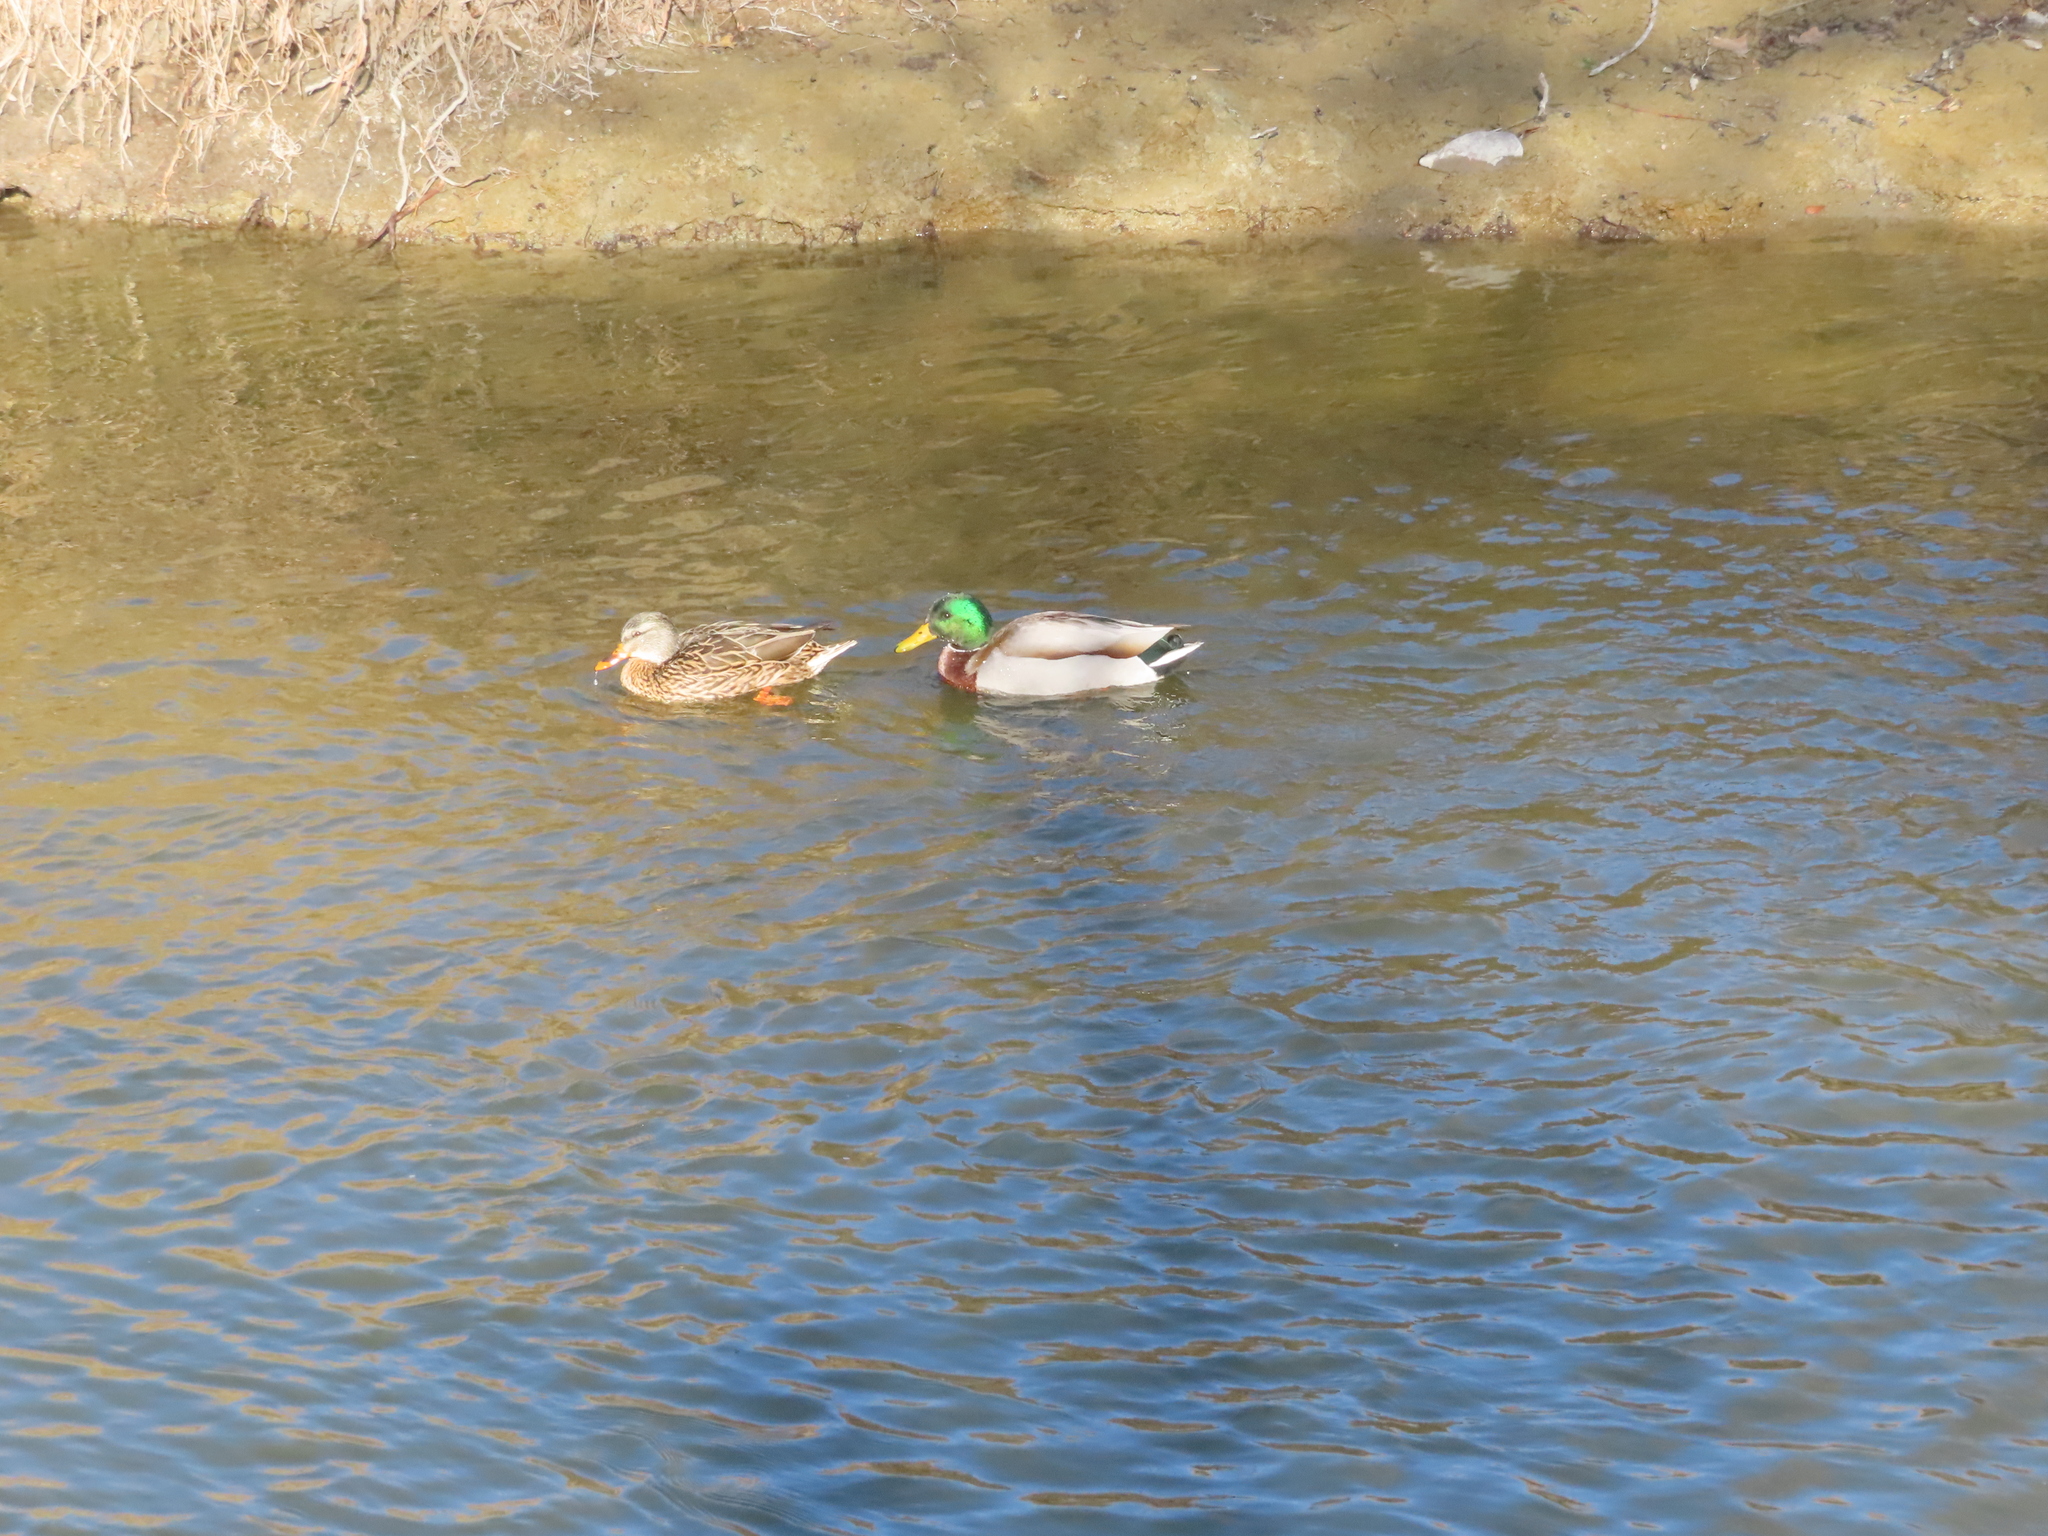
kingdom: Animalia
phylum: Chordata
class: Aves
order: Anseriformes
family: Anatidae
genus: Anas
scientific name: Anas platyrhynchos
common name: Mallard
